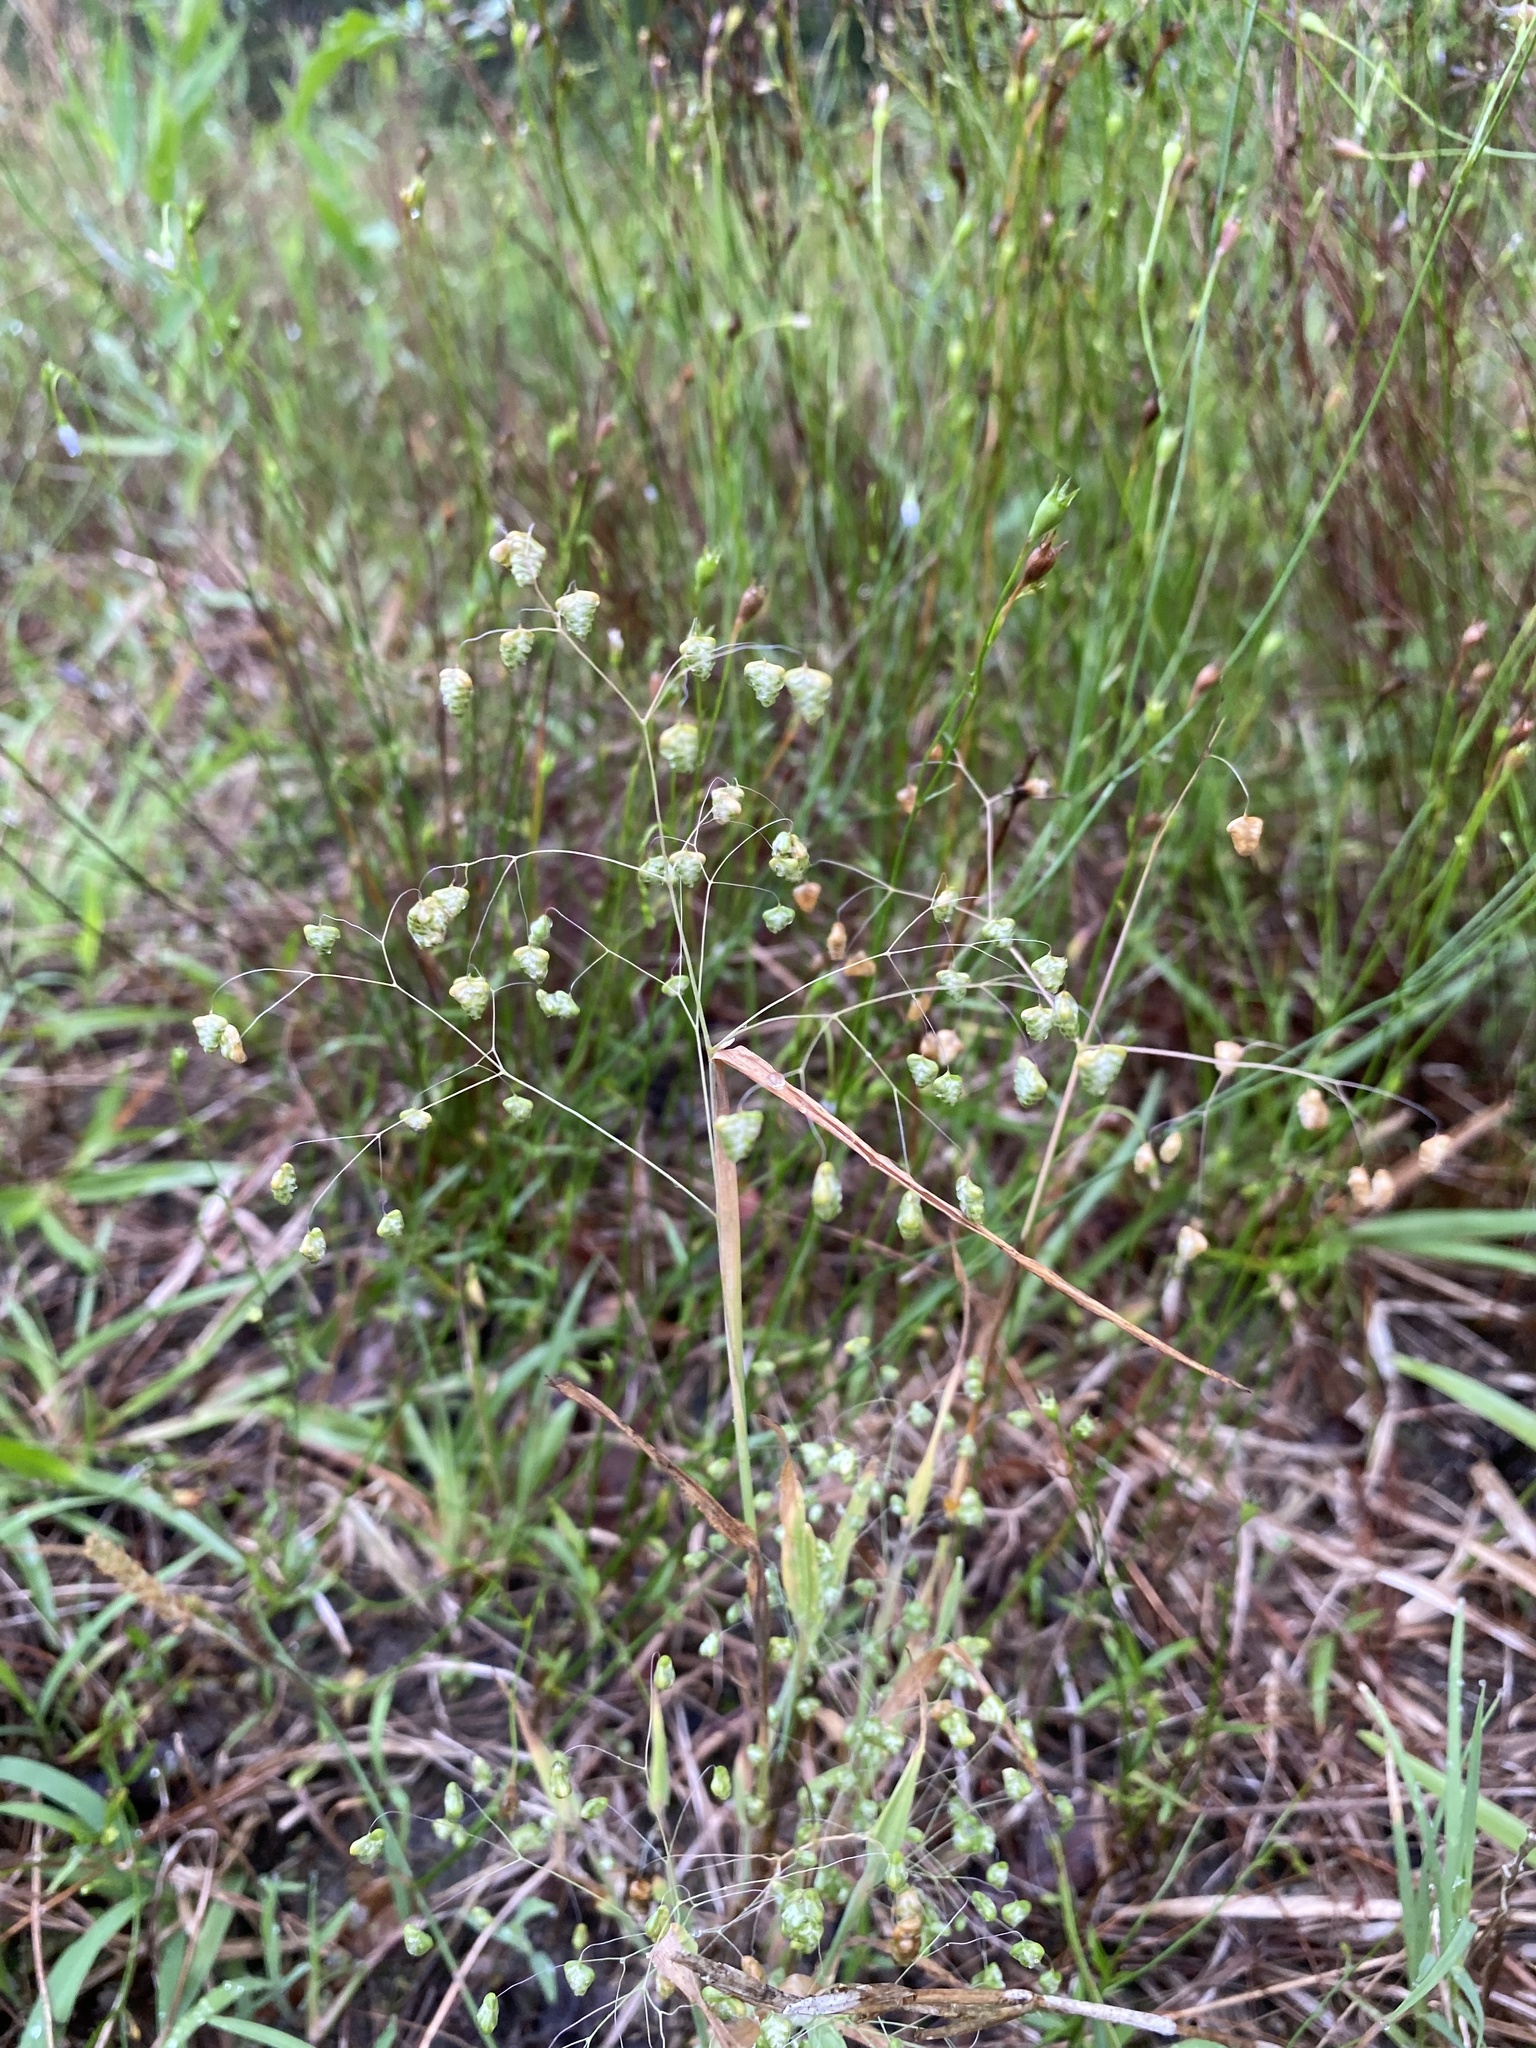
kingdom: Plantae
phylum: Tracheophyta
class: Liliopsida
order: Poales
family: Poaceae
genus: Briza
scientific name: Briza minor
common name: Lesser quaking-grass
